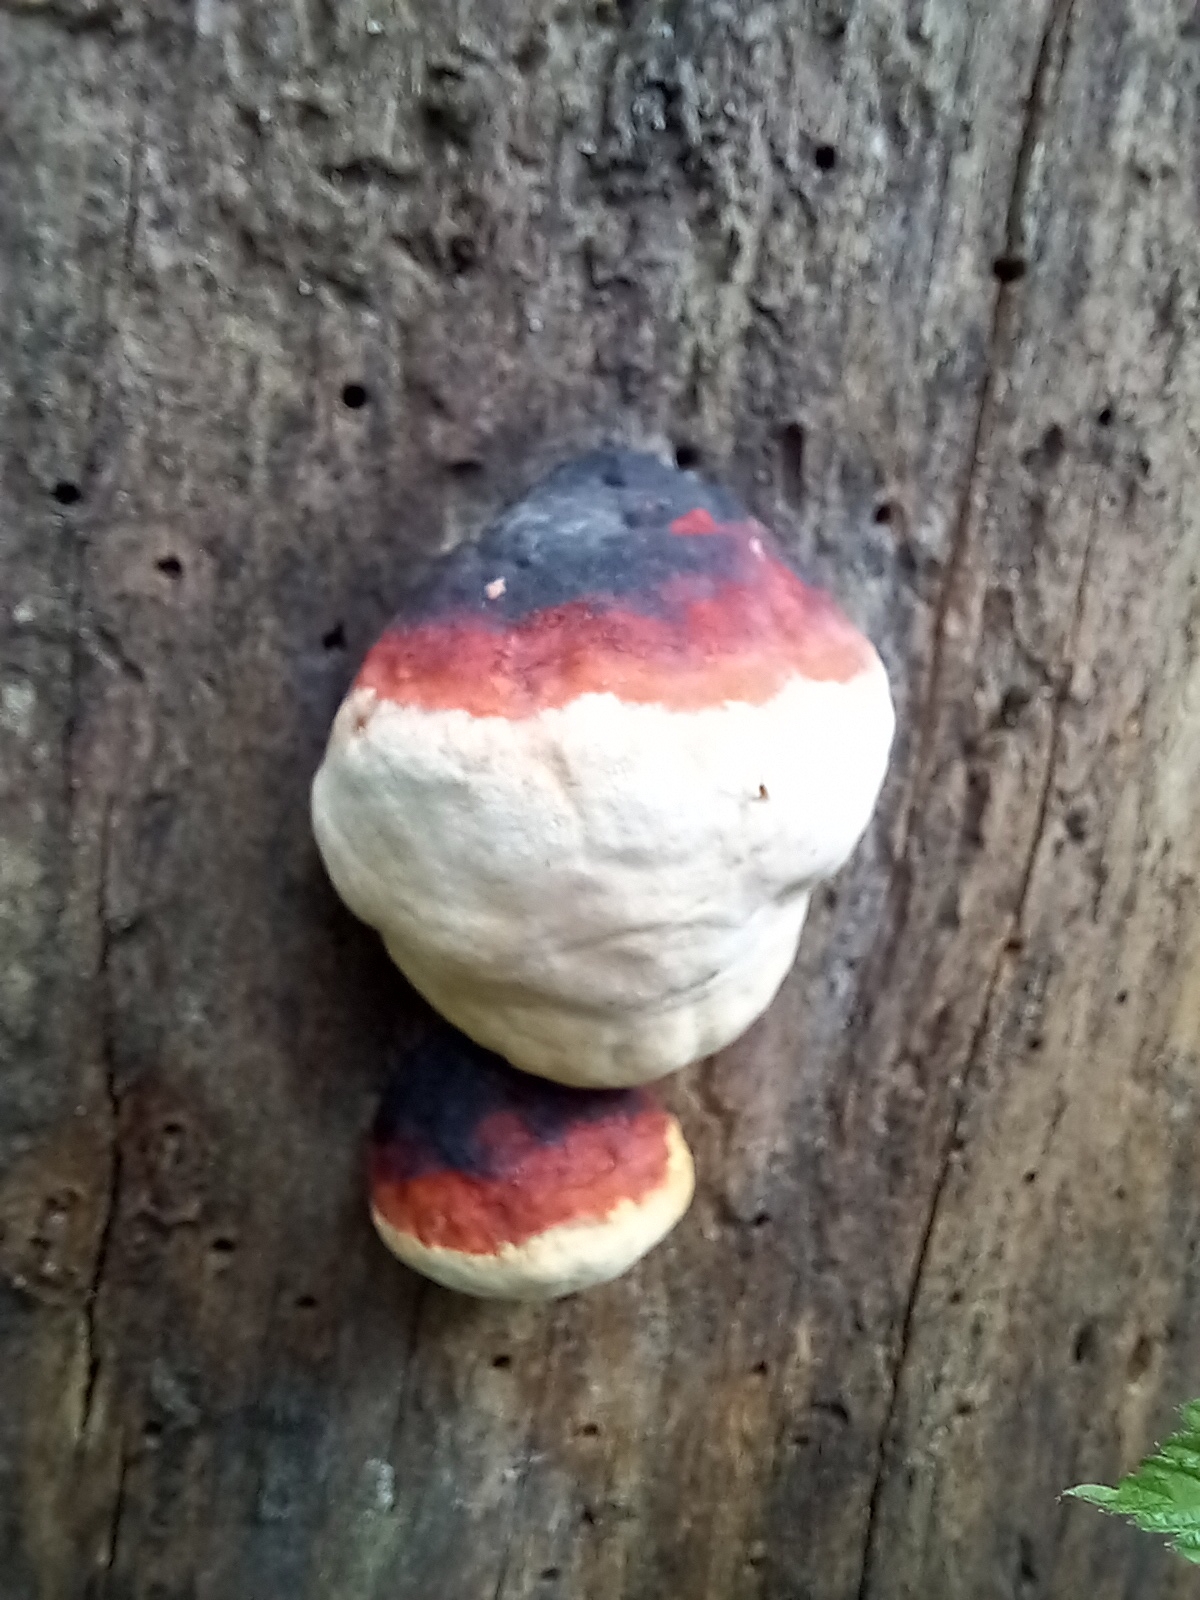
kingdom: Fungi
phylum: Basidiomycota
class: Agaricomycetes
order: Polyporales
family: Fomitopsidaceae
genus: Fomitopsis
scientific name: Fomitopsis pinicola
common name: Red-belted bracket
